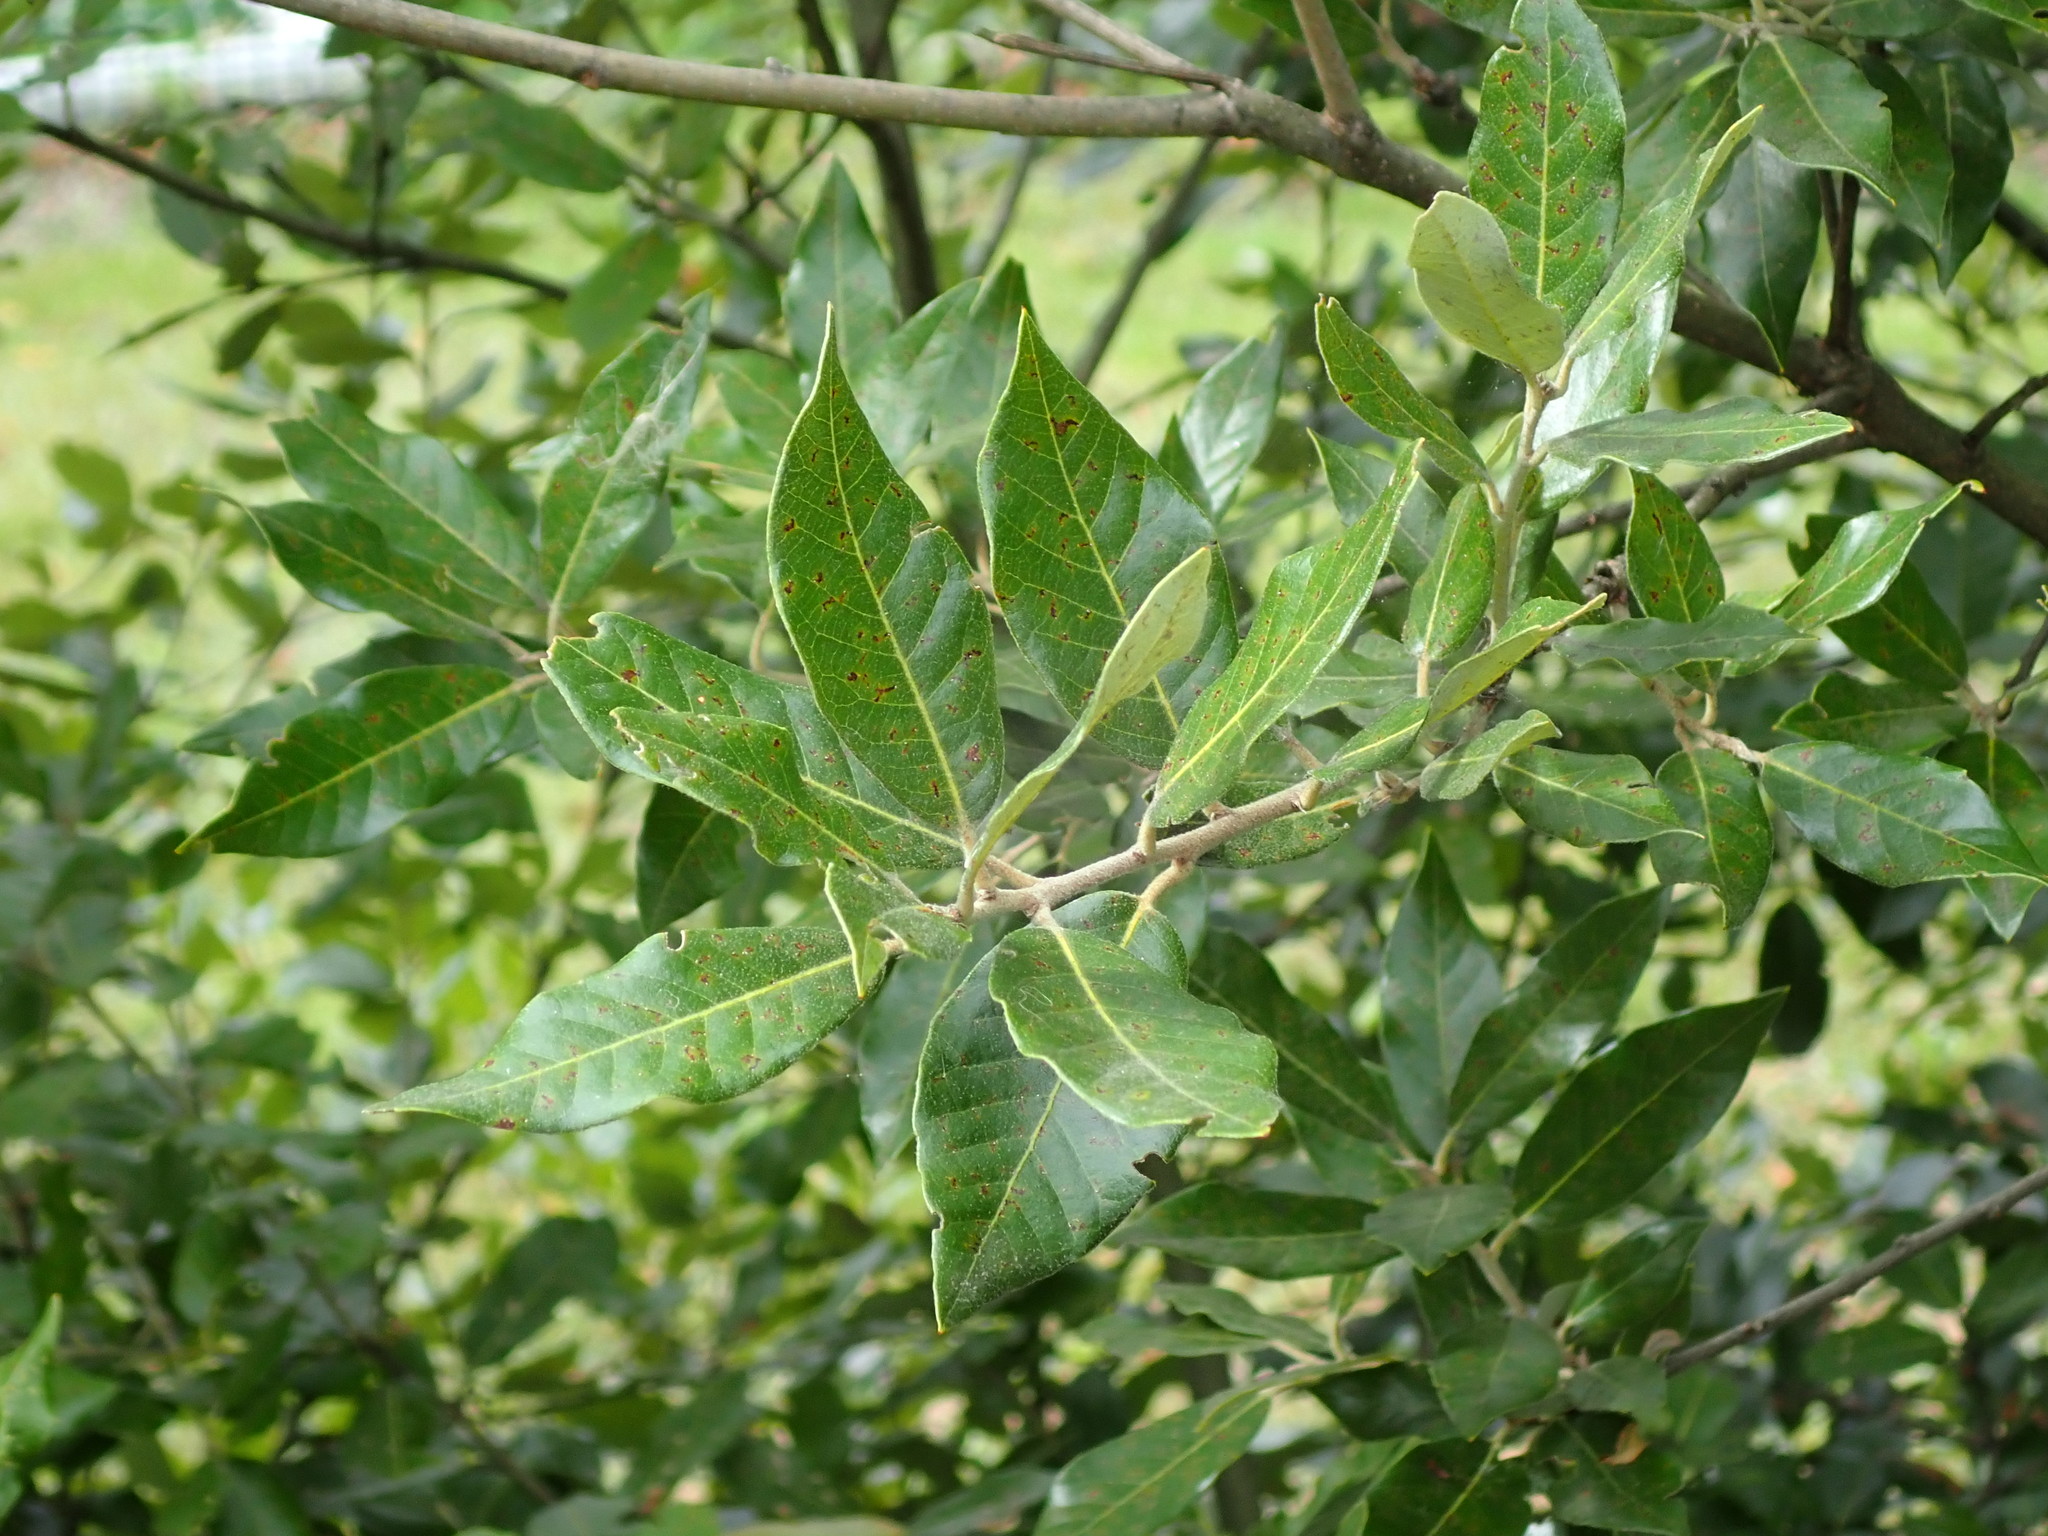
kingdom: Plantae
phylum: Tracheophyta
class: Magnoliopsida
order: Fagales
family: Fagaceae
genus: Quercus
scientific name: Quercus ilex
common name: Evergreen oak
